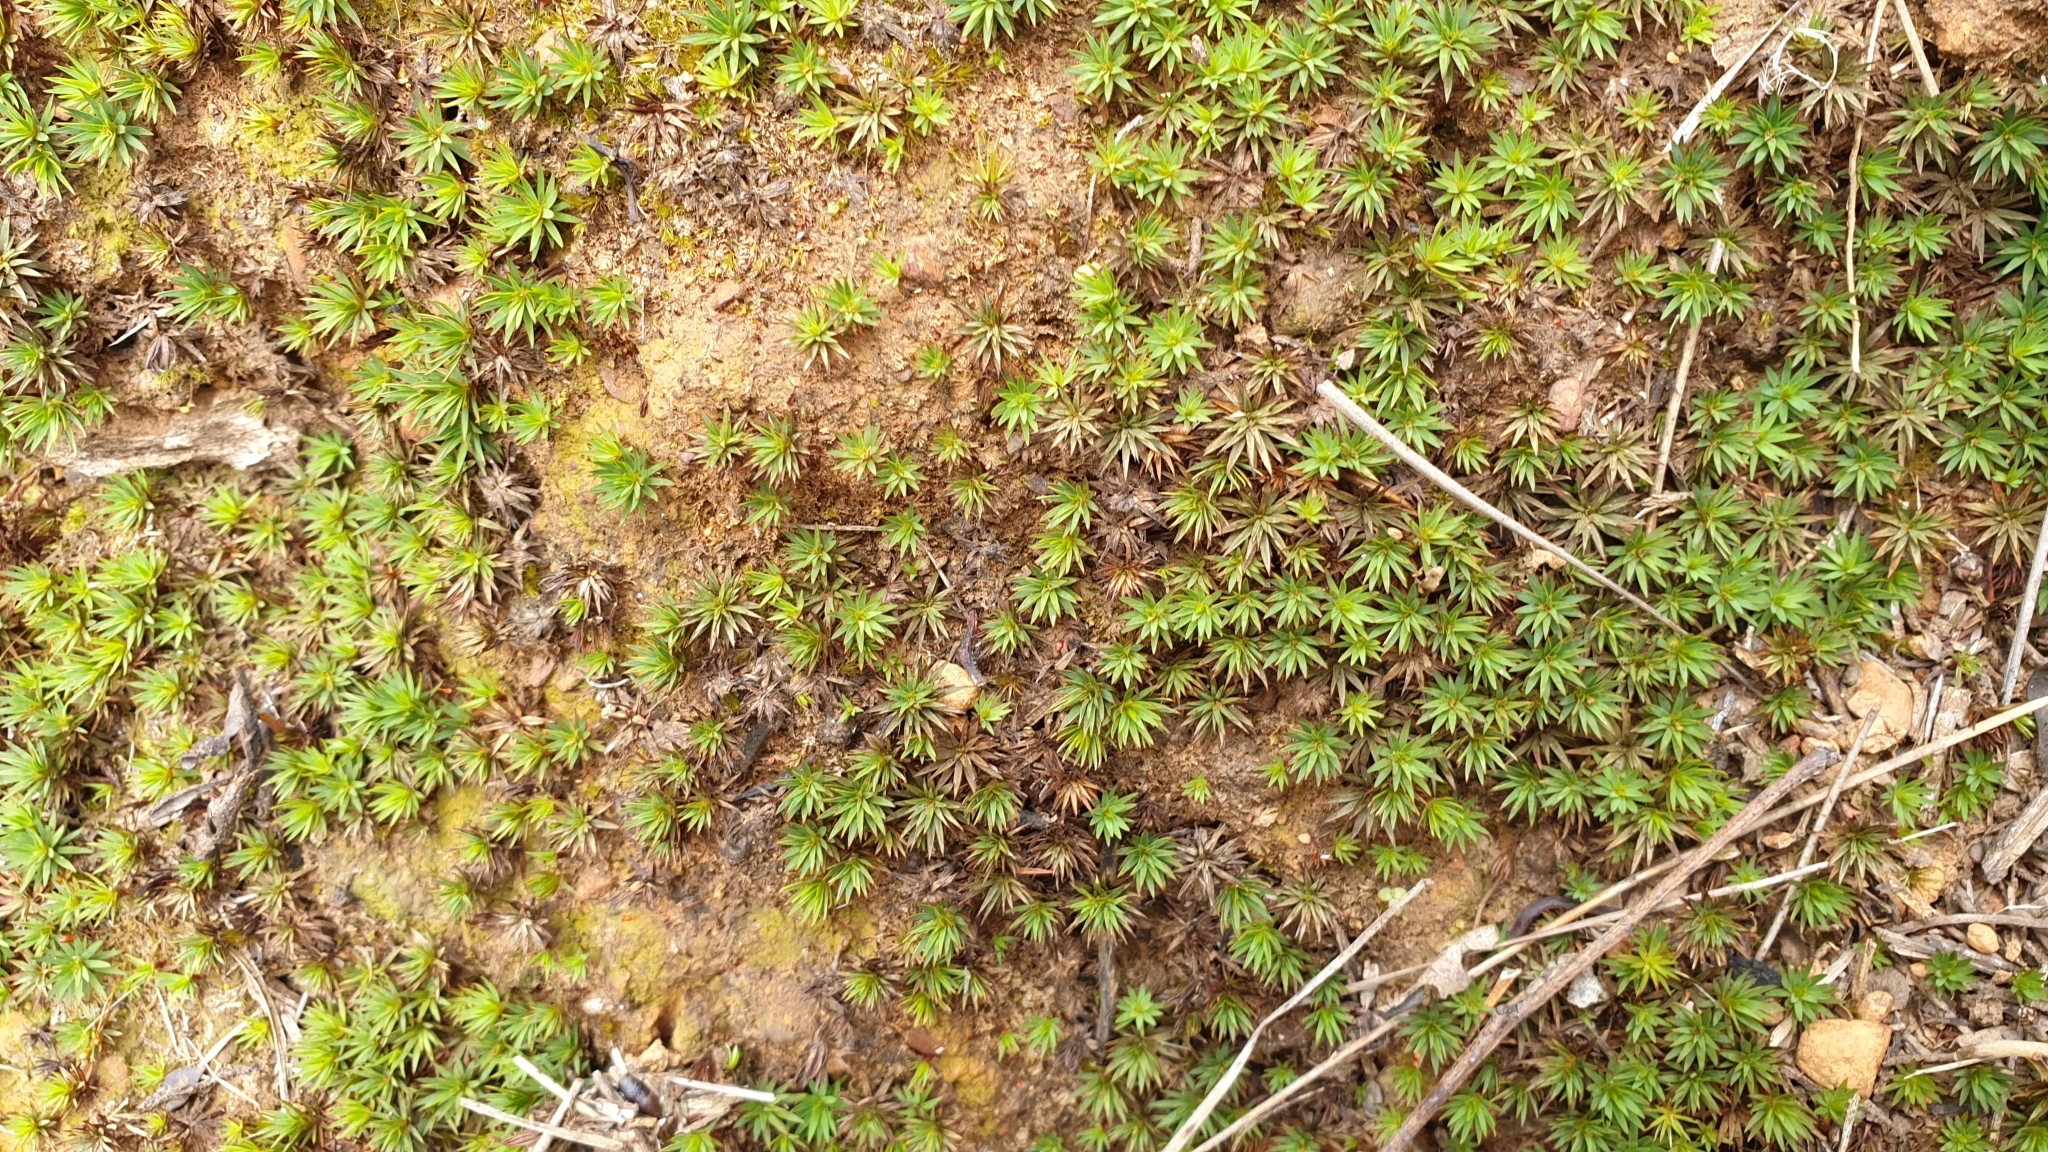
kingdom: Plantae
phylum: Bryophyta
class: Polytrichopsida
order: Polytrichales
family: Polytrichaceae
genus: Dawsonia
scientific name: Dawsonia longiseta
